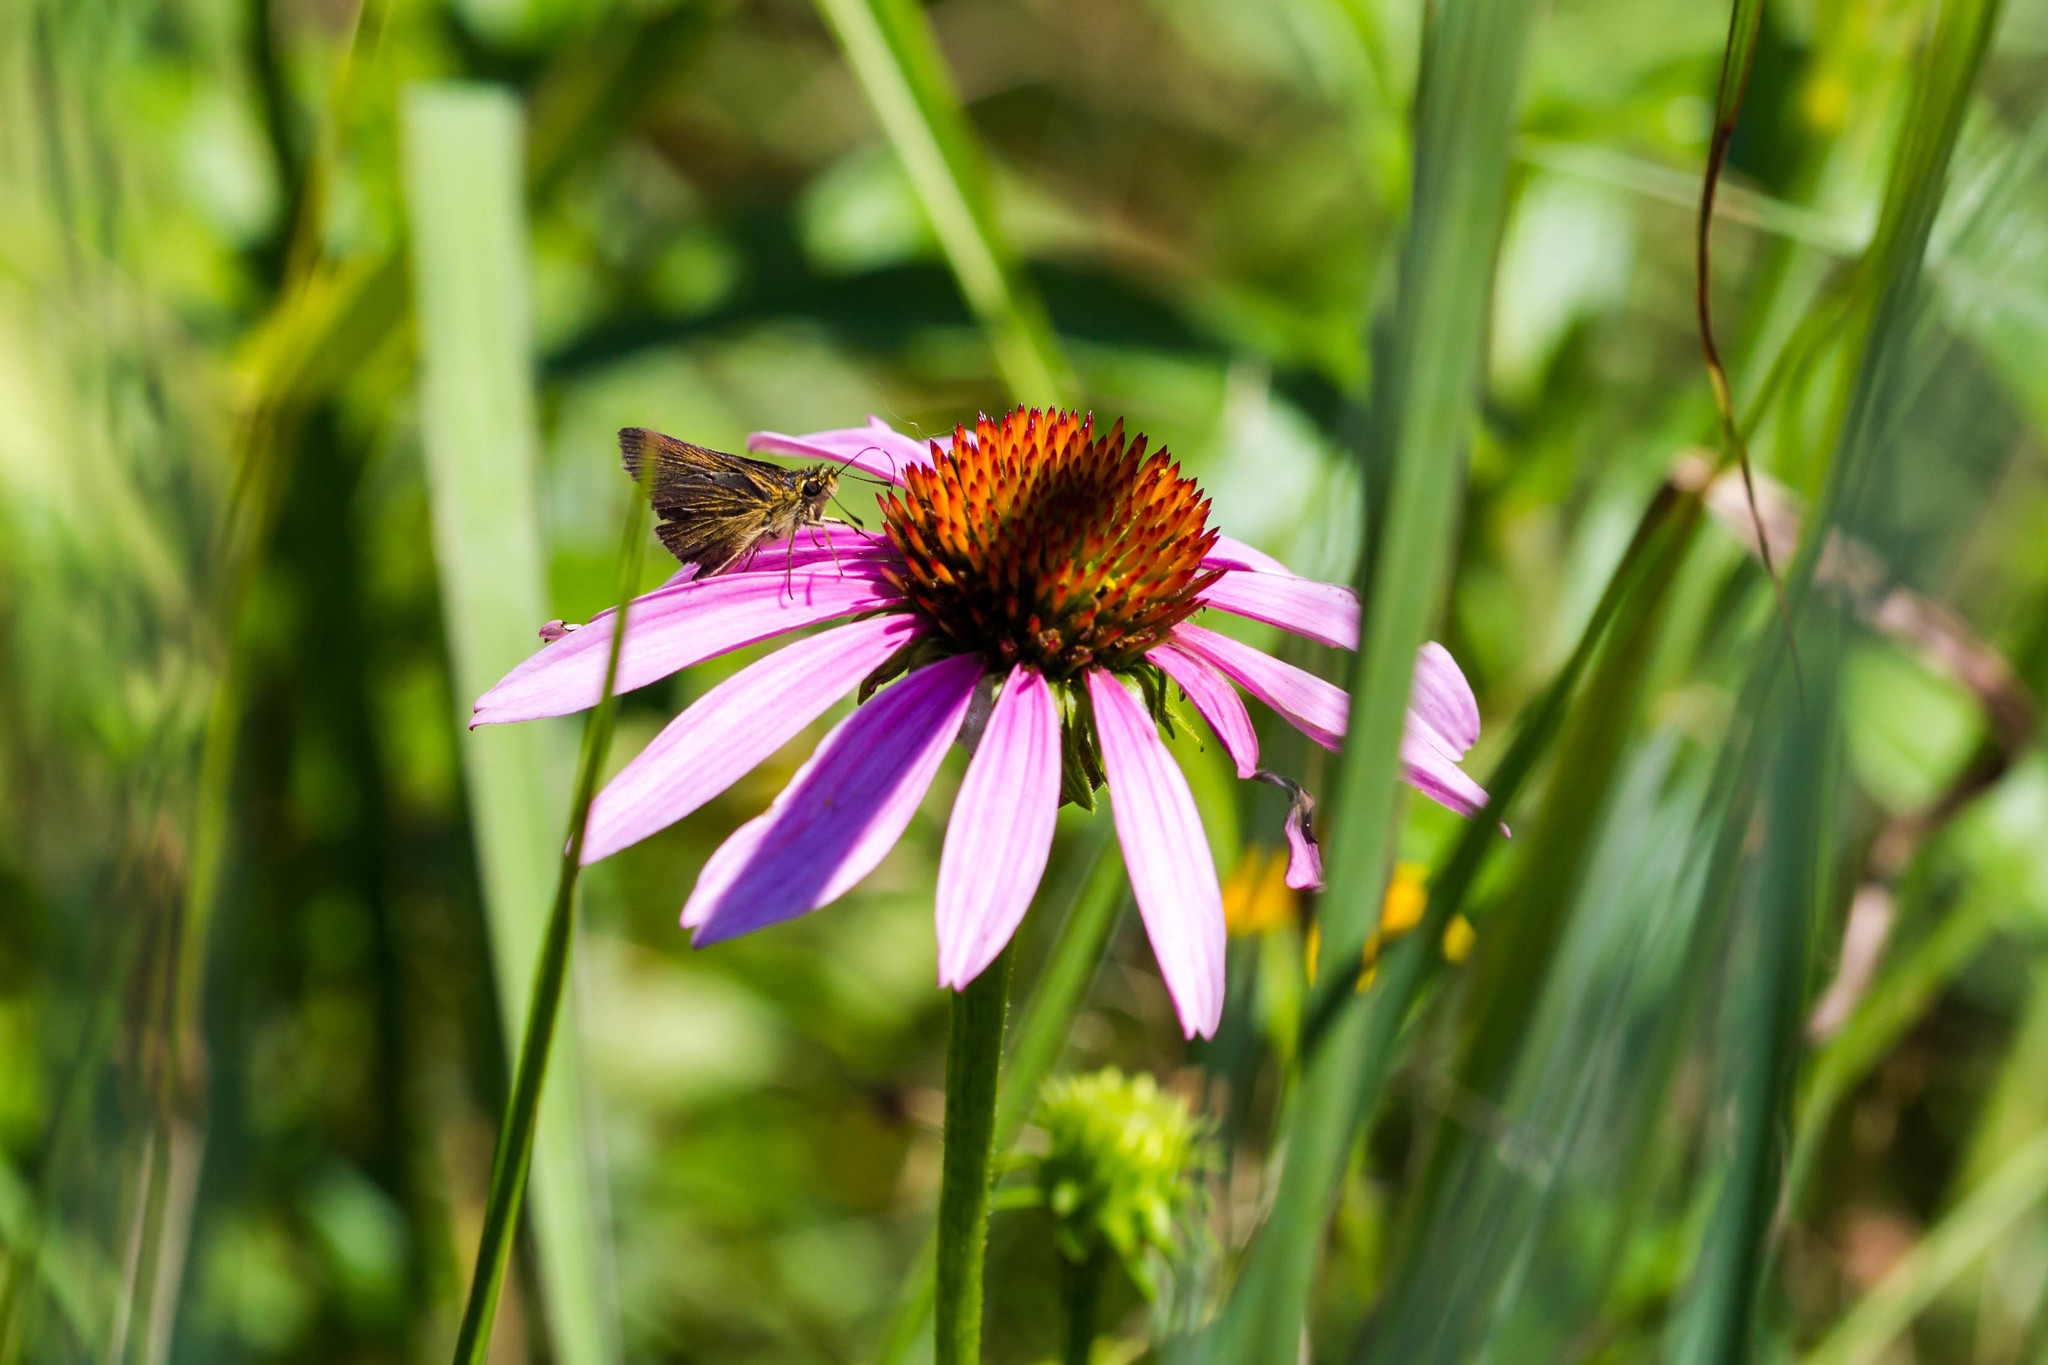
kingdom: Animalia
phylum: Arthropoda
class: Insecta
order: Lepidoptera
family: Hesperiidae
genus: Nastra
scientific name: Nastra lherminier
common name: Swarthy skipper
